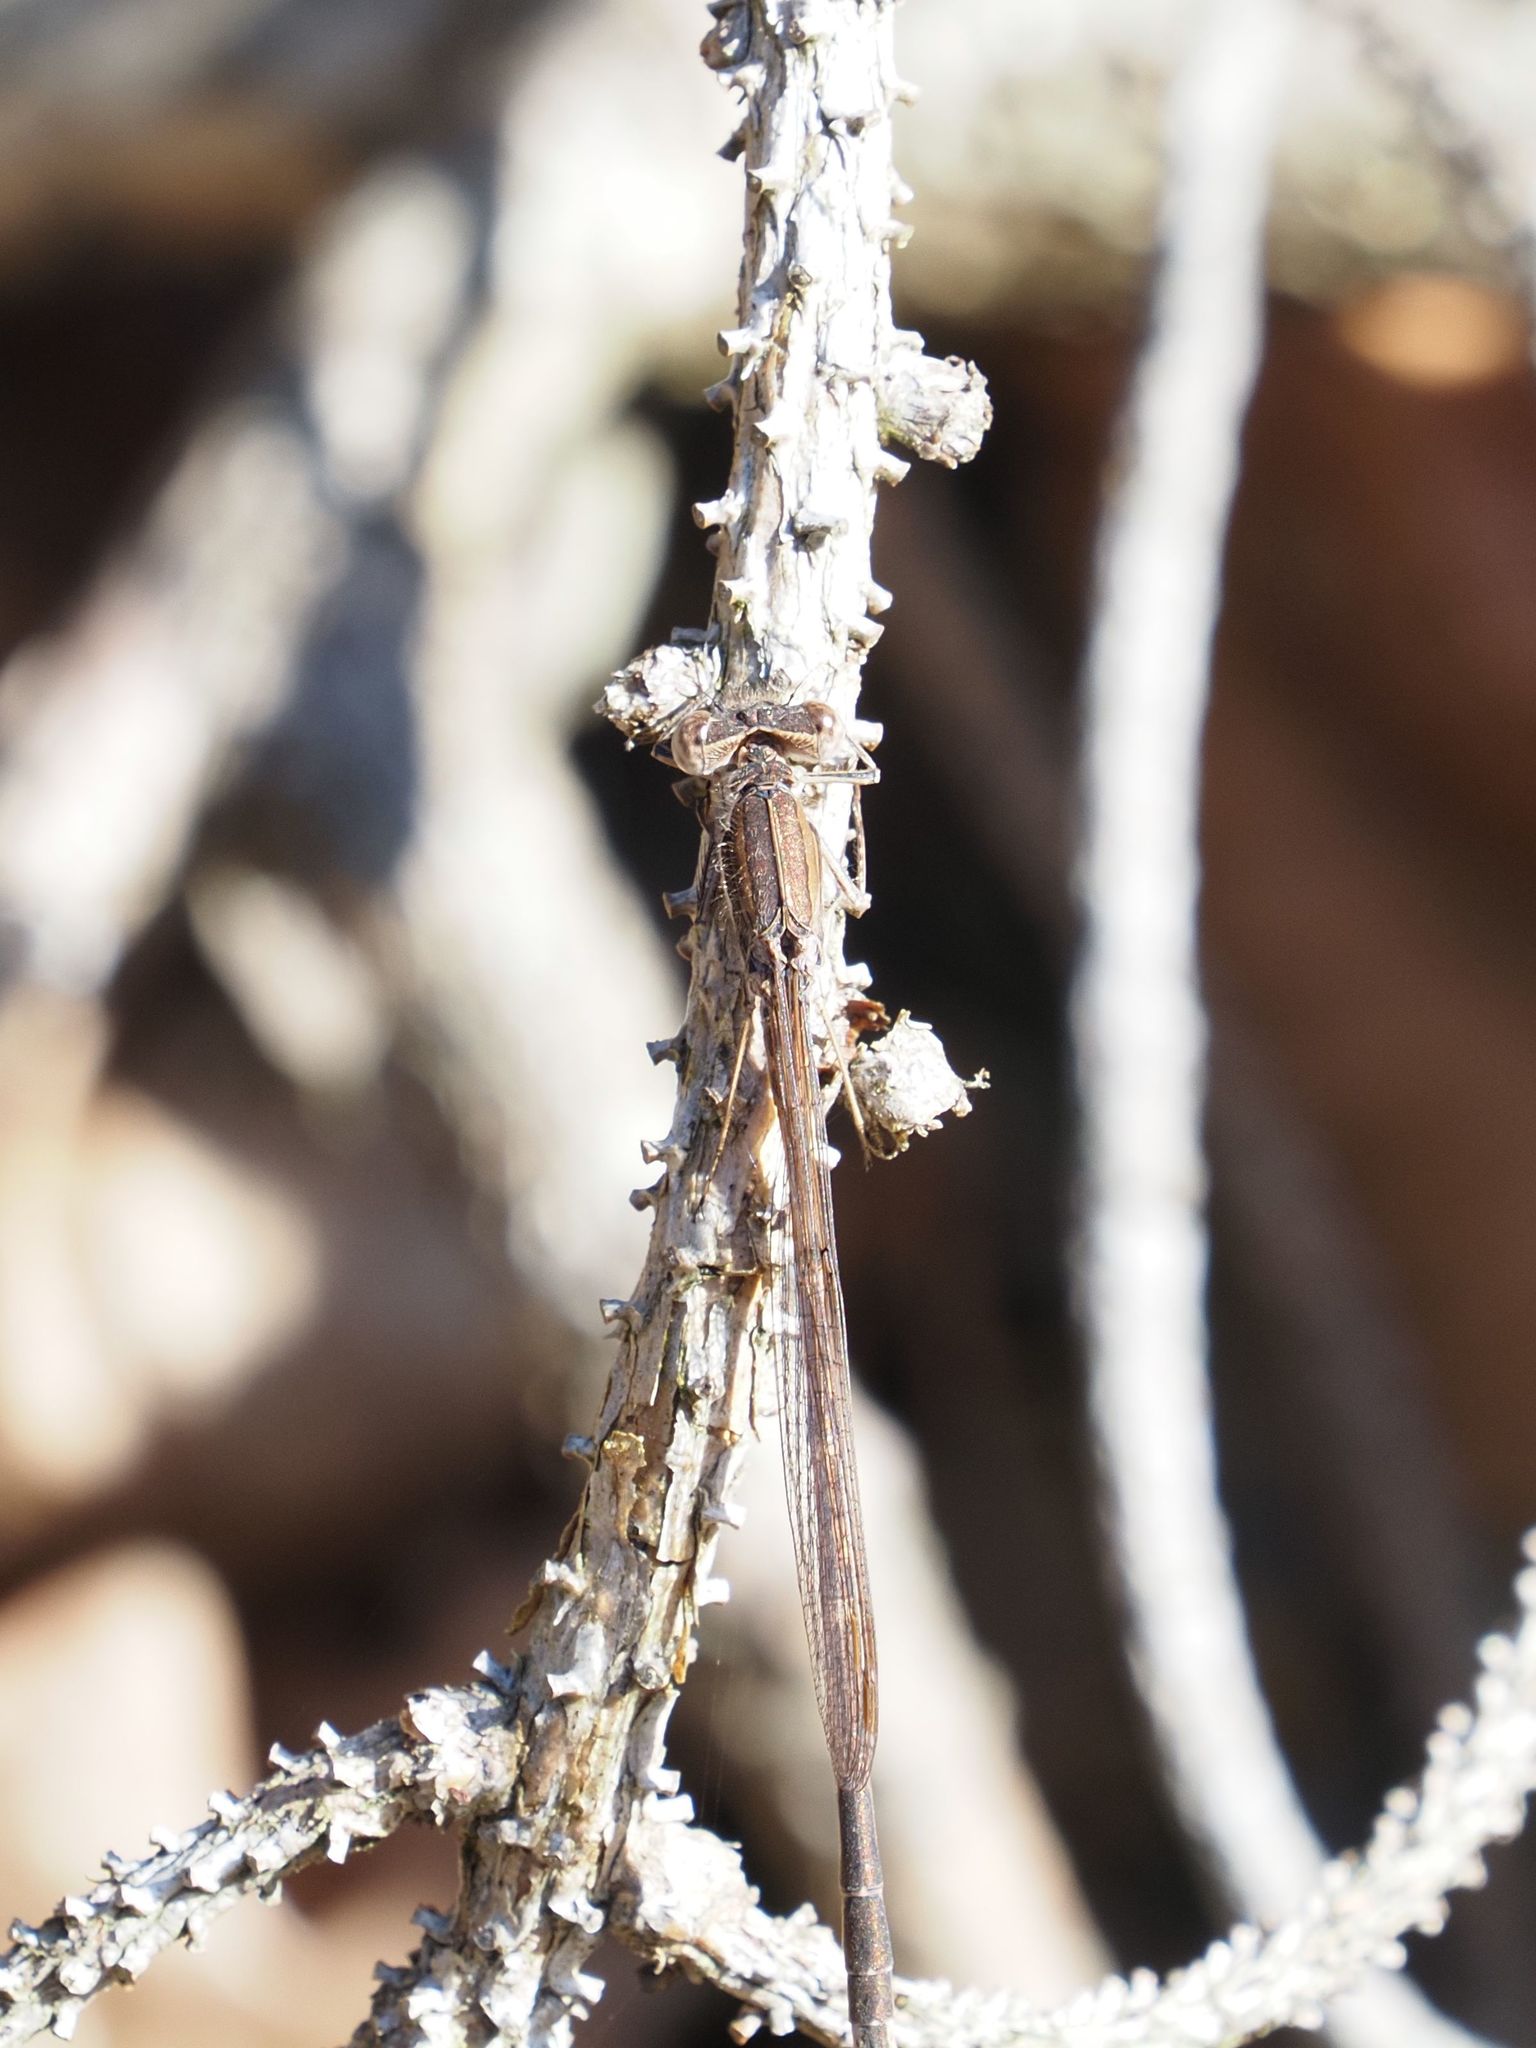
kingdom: Animalia
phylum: Arthropoda
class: Insecta
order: Odonata
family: Lestidae
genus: Sympecma
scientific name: Sympecma fusca
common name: Common winter damsel
